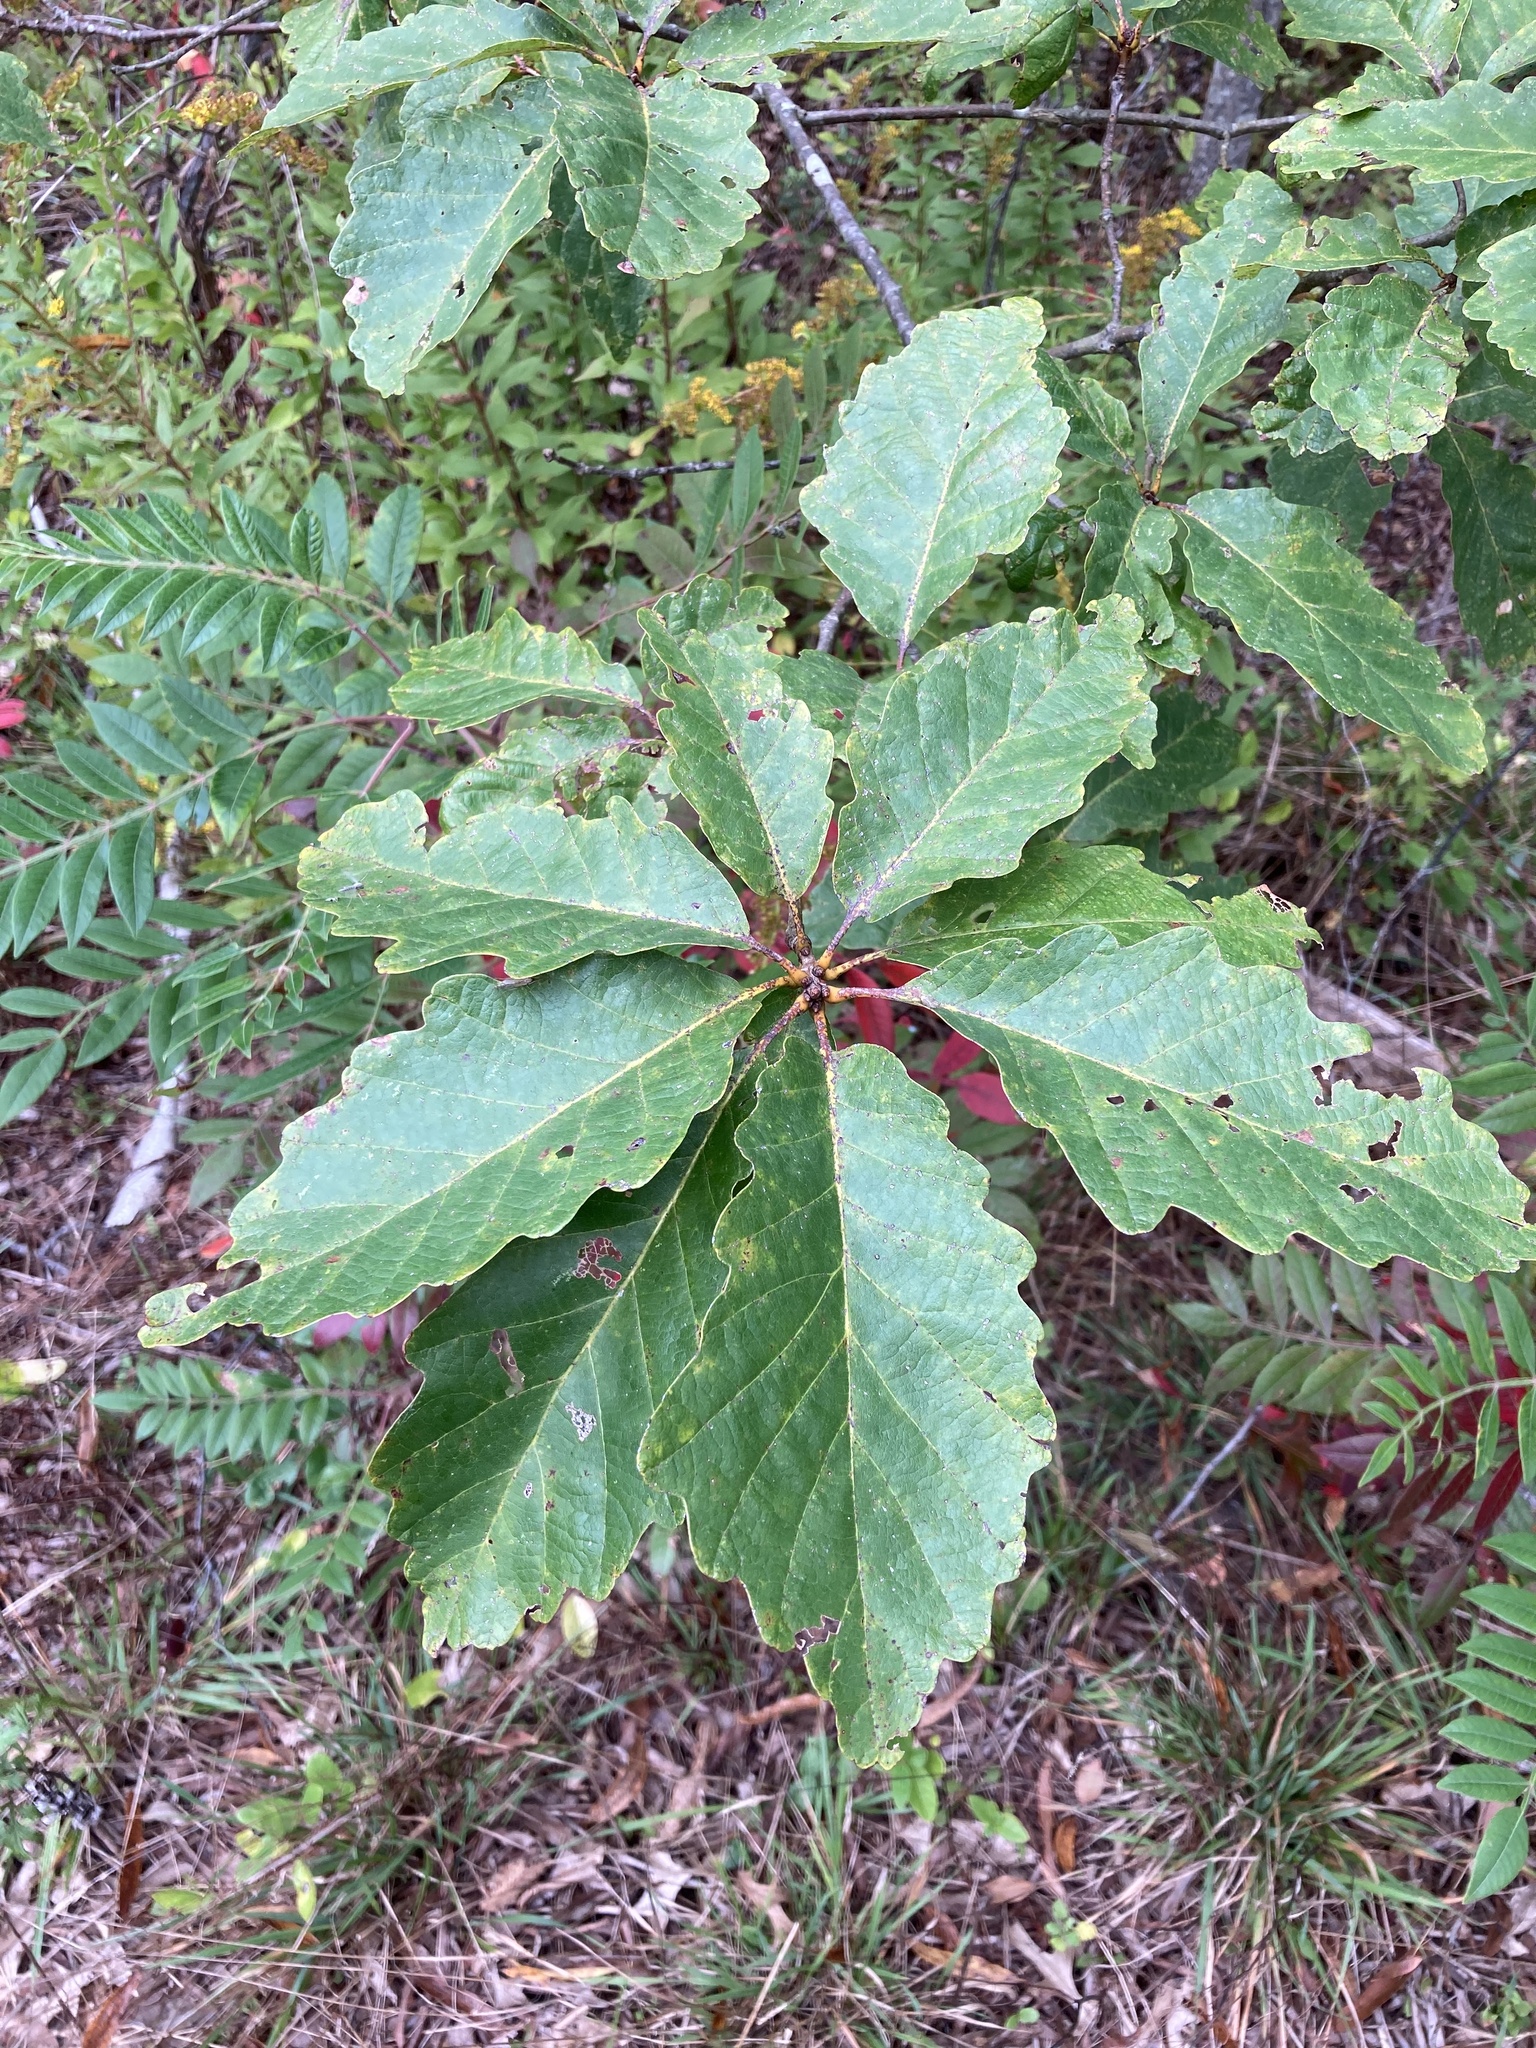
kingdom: Plantae
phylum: Tracheophyta
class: Magnoliopsida
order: Fagales
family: Fagaceae
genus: Quercus
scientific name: Quercus montana
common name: Chestnut oak
